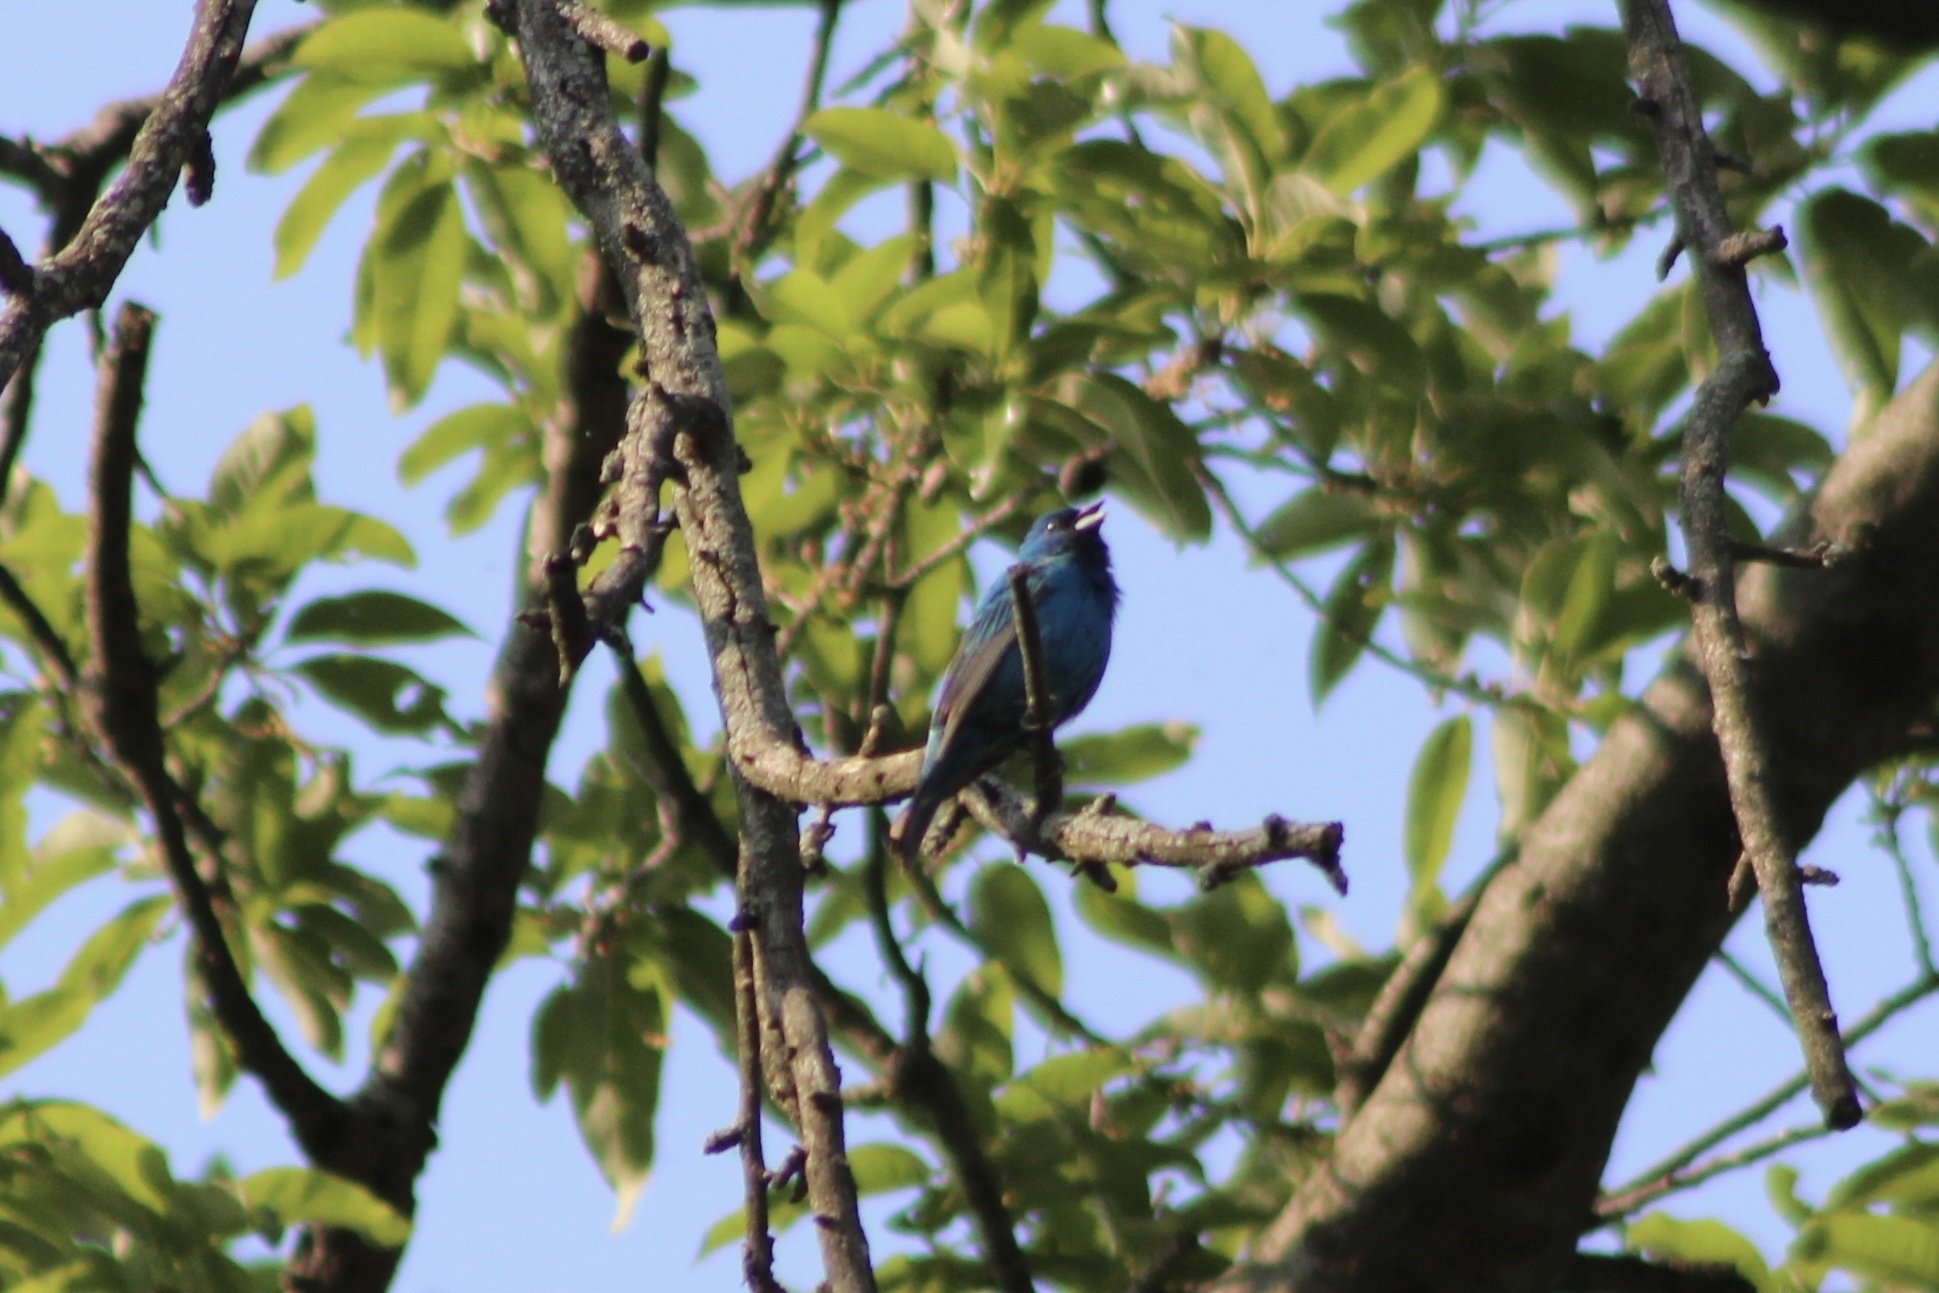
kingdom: Animalia
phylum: Chordata
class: Aves
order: Passeriformes
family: Cardinalidae
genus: Passerina
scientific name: Passerina cyanea
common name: Indigo bunting
